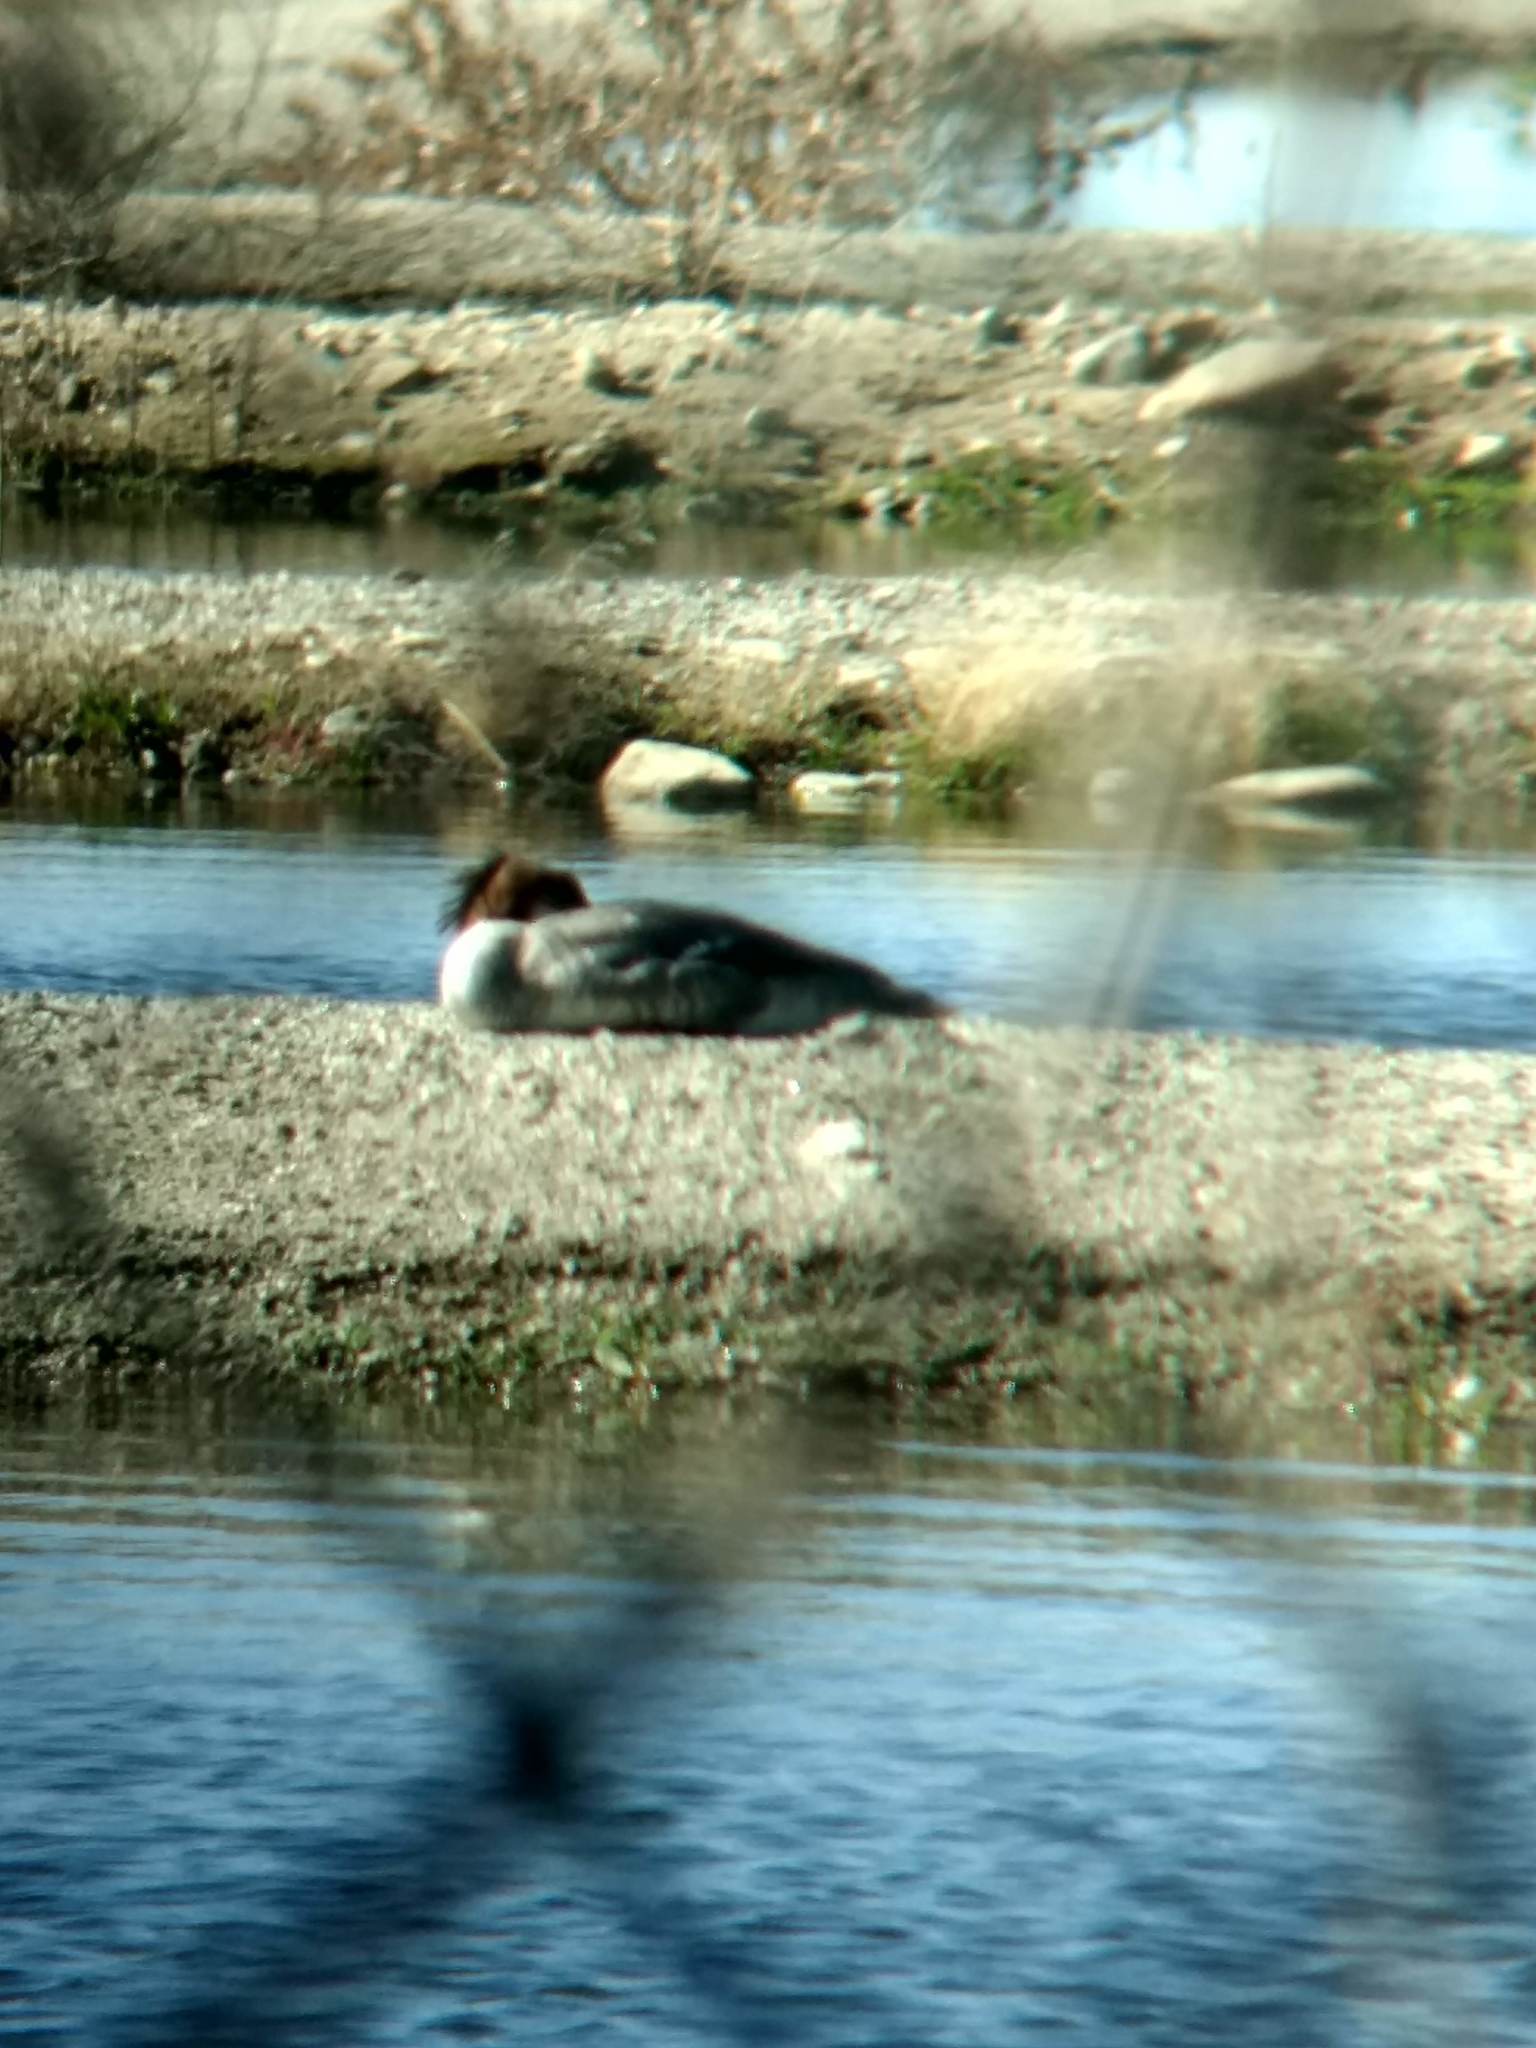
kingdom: Animalia
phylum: Chordata
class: Aves
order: Anseriformes
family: Anatidae
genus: Mergus
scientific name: Mergus merganser
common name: Common merganser
